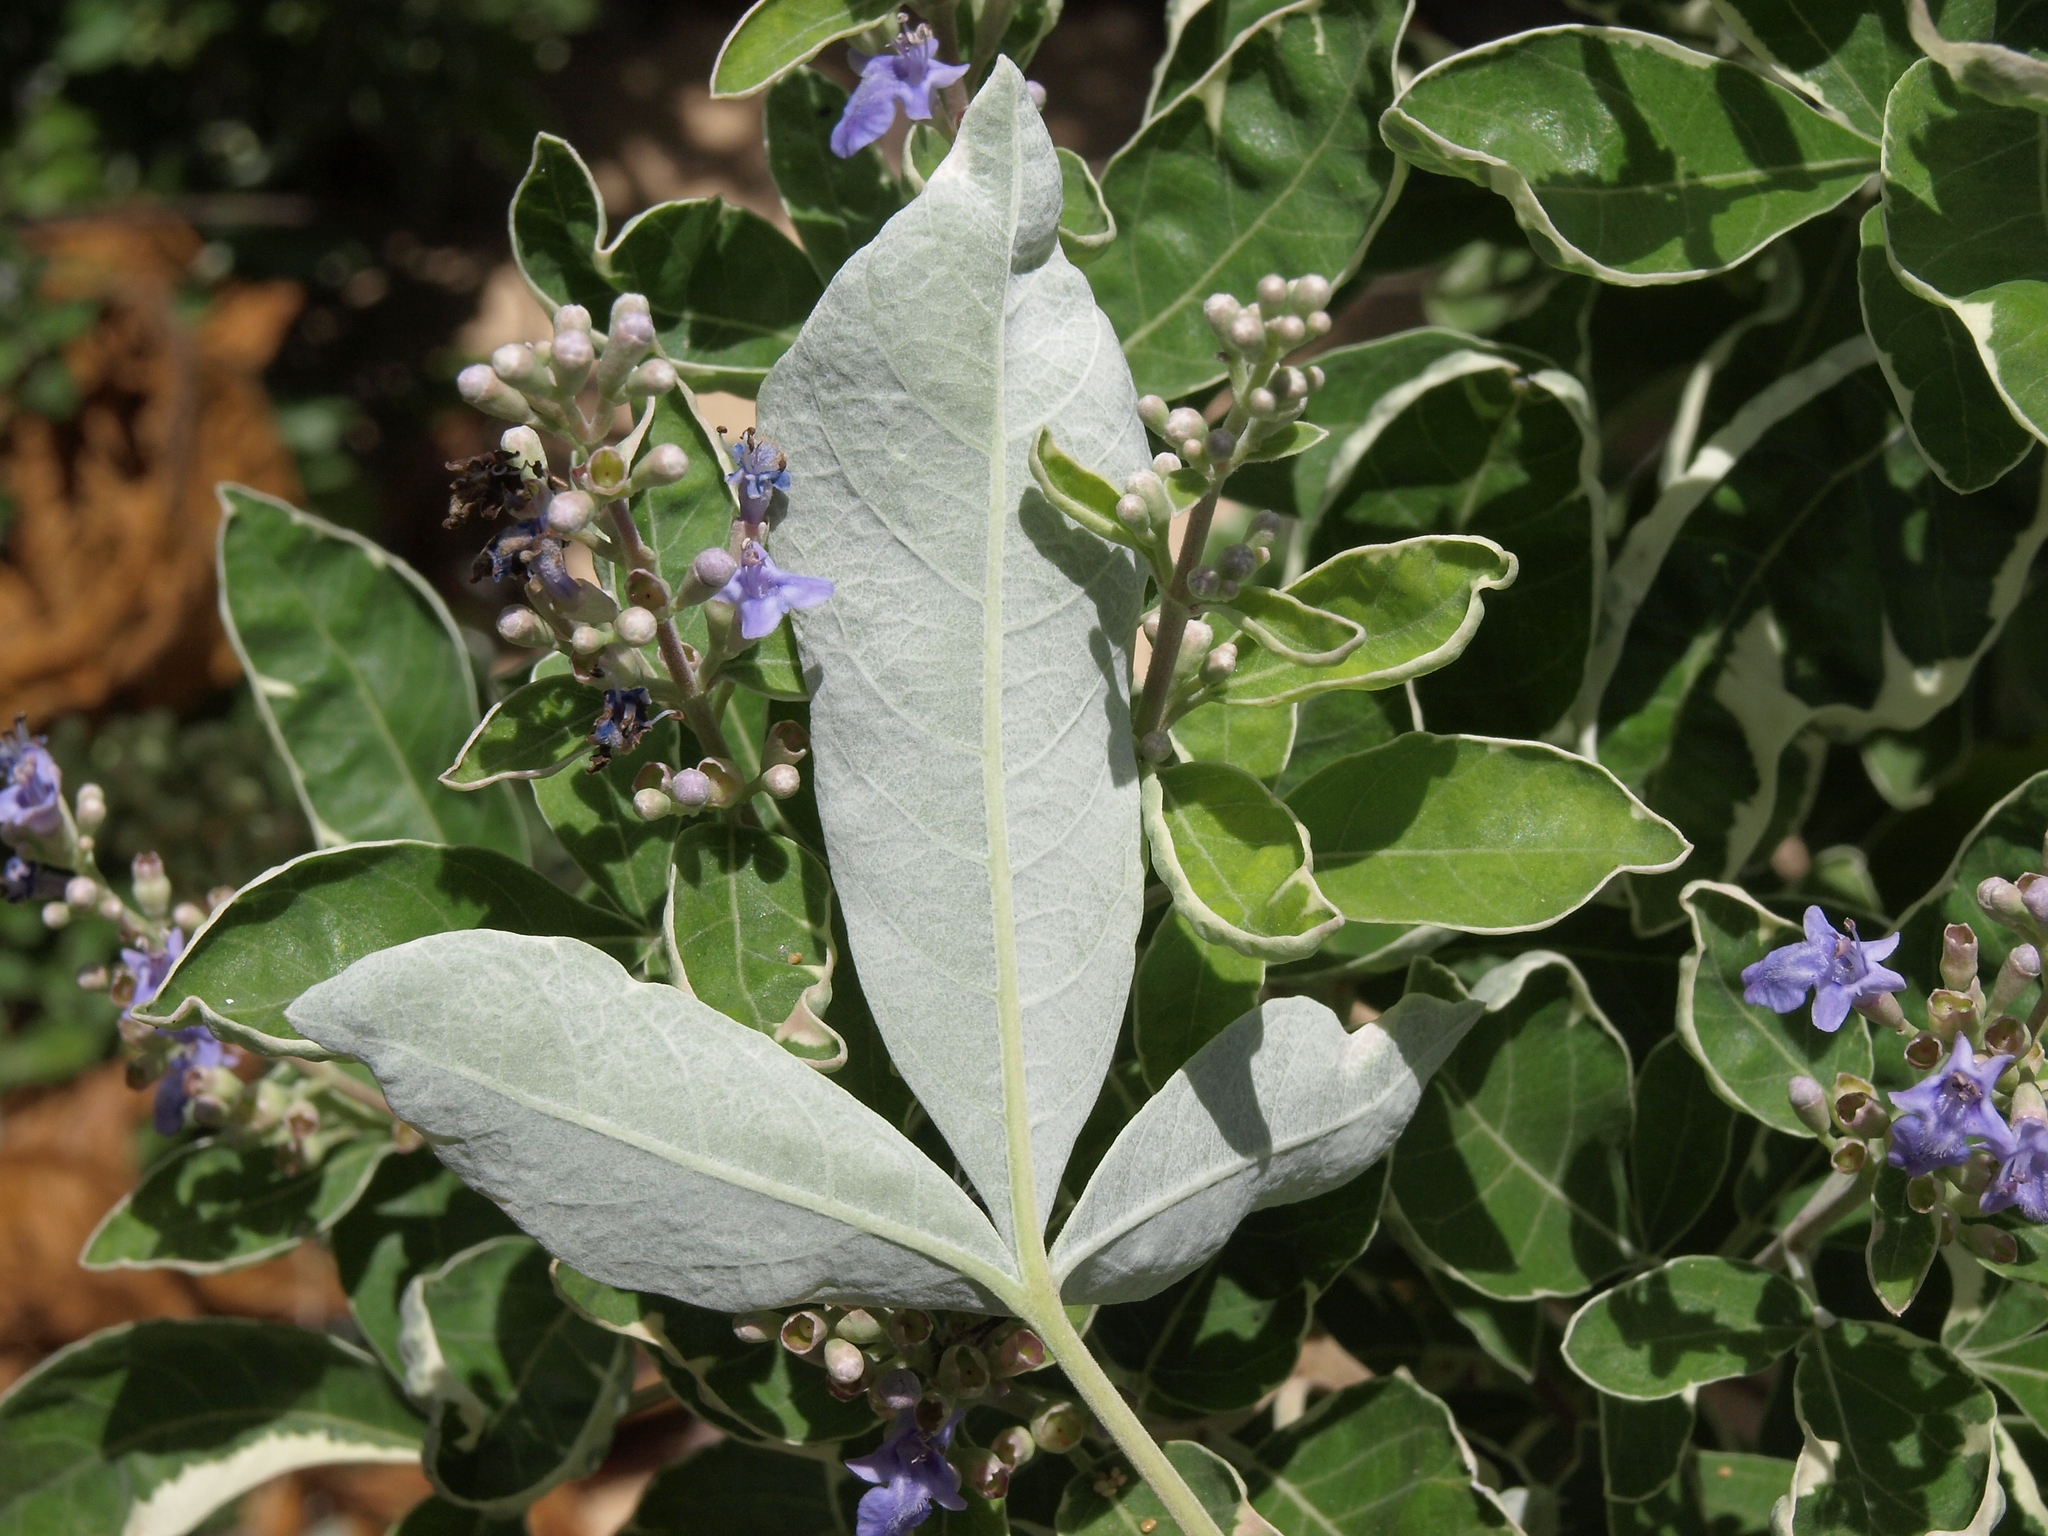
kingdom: Plantae
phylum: Tracheophyta
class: Magnoliopsida
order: Lamiales
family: Lamiaceae
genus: Vitex
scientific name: Vitex trifolia
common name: Simpleleaf chastetree
